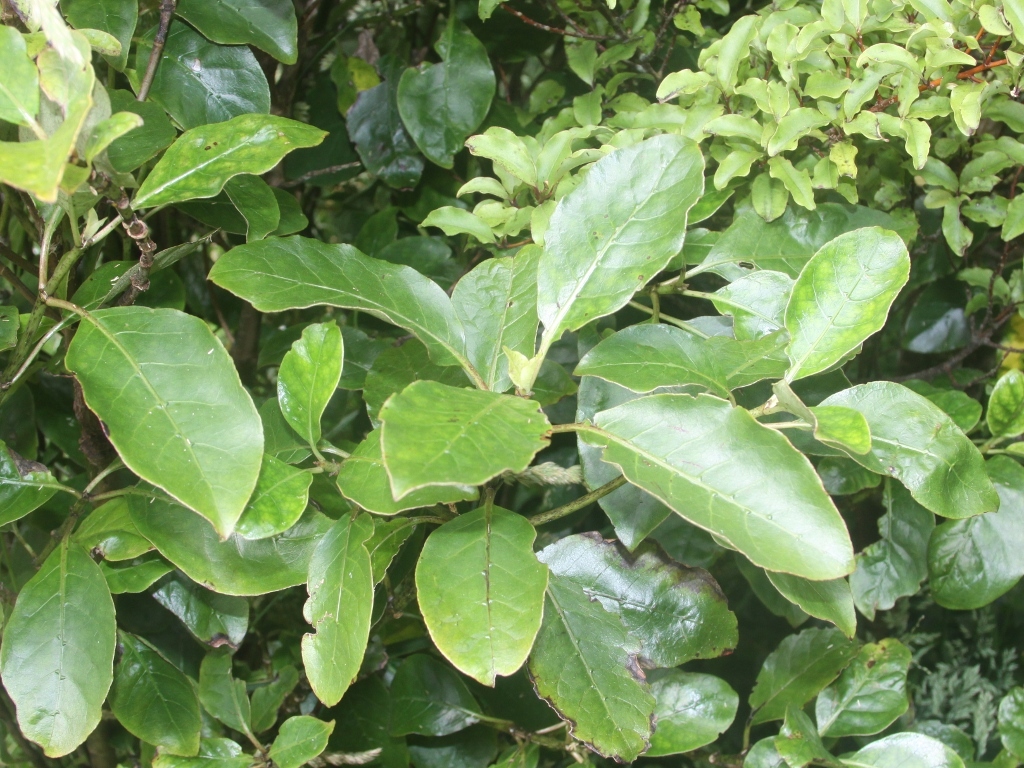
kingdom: Plantae
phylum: Tracheophyta
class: Magnoliopsida
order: Gentianales
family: Rubiaceae
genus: Coprosma
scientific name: Coprosma autumnalis
